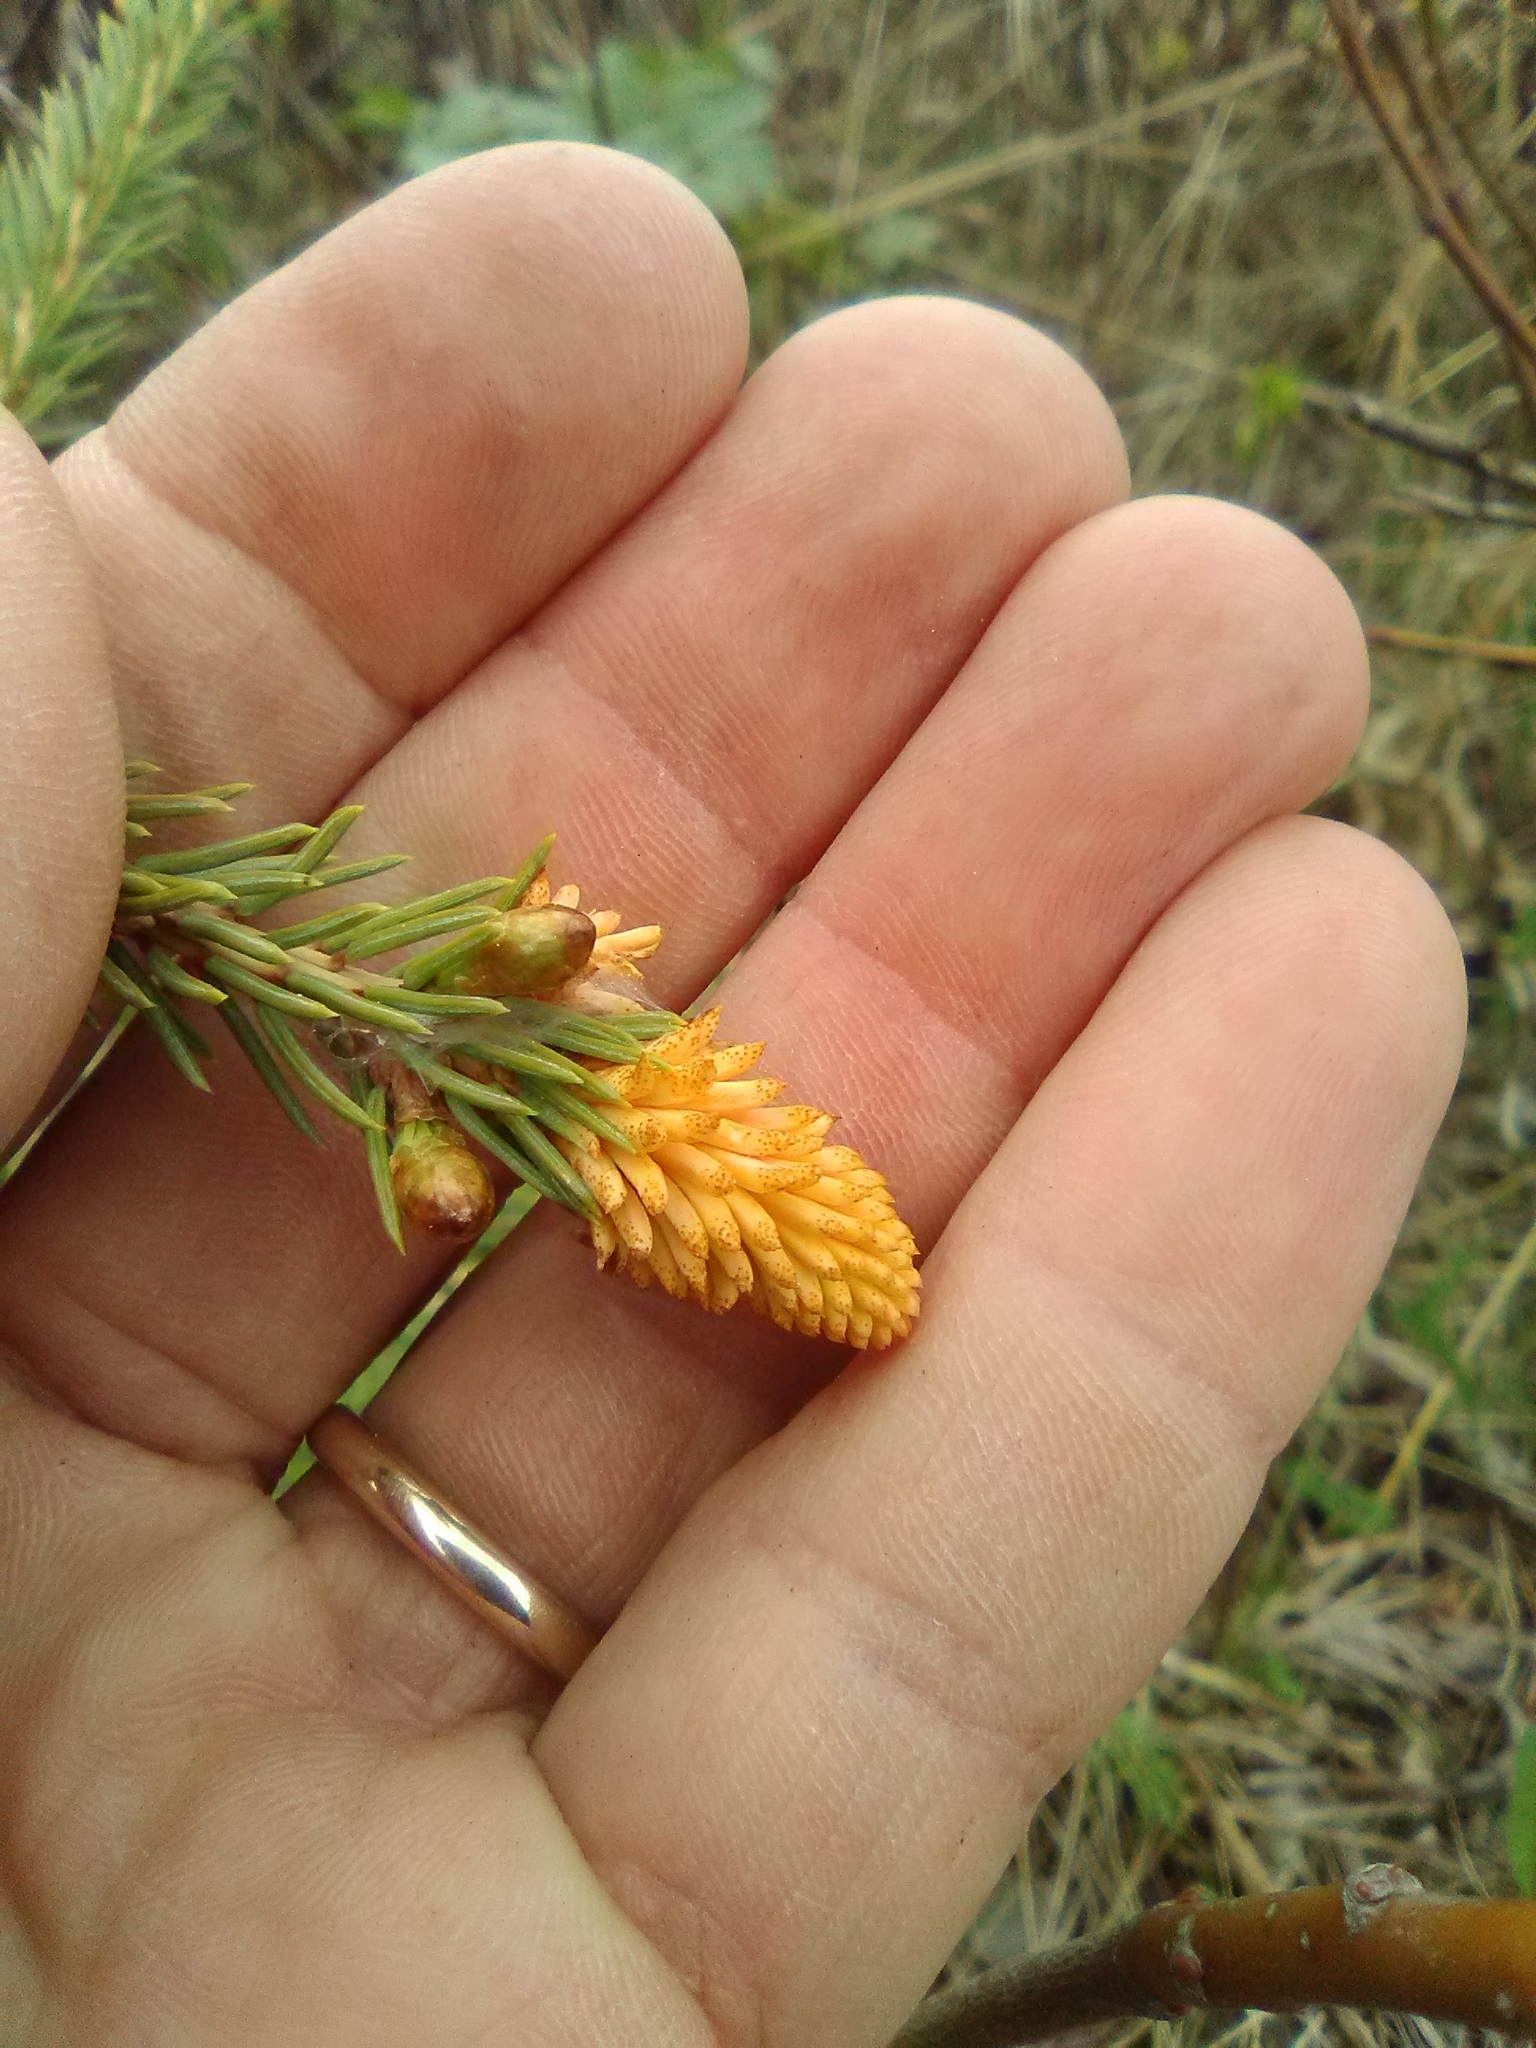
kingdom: Fungi
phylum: Basidiomycota
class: Pucciniomycetes
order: Pucciniales
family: Coleosporiaceae
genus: Chrysomyxa
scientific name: Chrysomyxa woroninii
